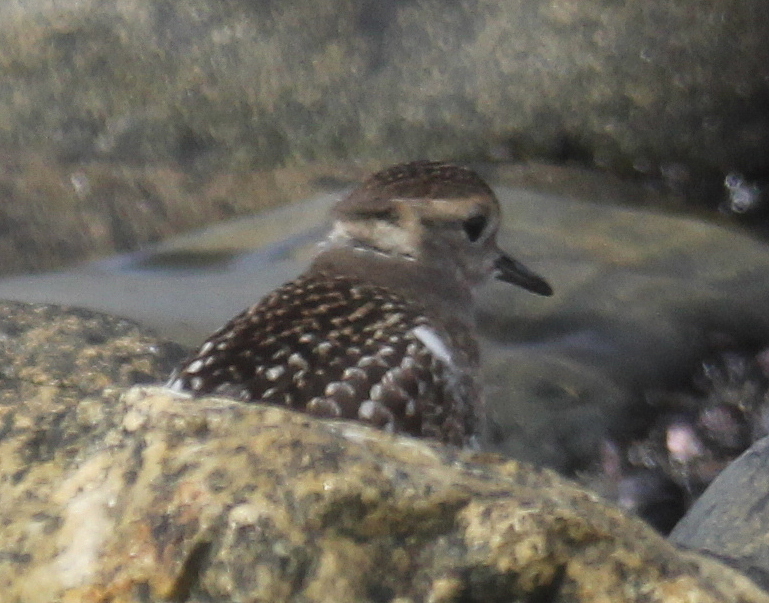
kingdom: Animalia
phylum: Chordata
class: Aves
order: Charadriiformes
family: Charadriidae
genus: Charadrius
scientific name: Charadrius modestus
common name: Rufous-chested plover
